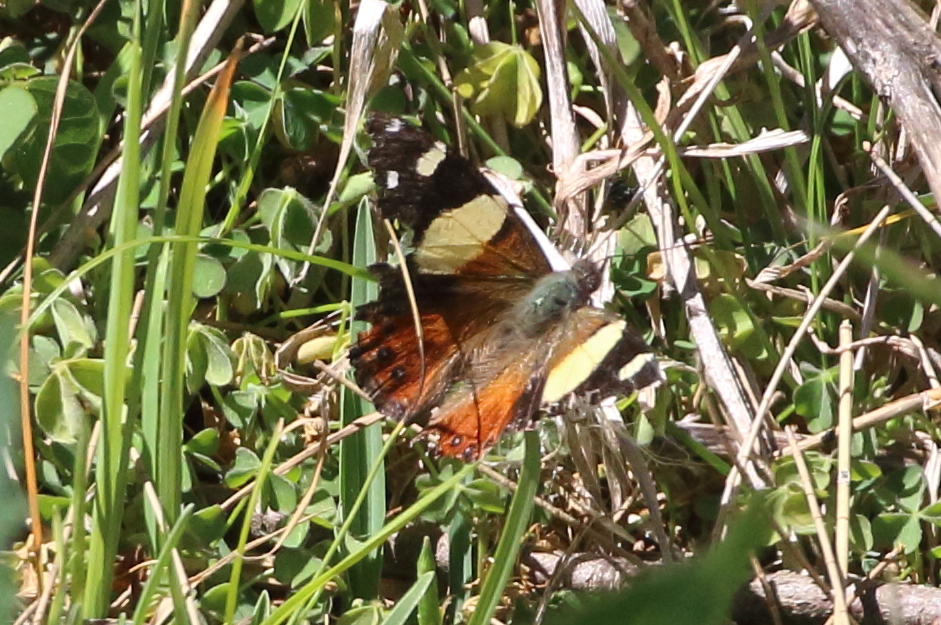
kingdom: Animalia
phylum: Arthropoda
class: Insecta
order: Lepidoptera
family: Nymphalidae
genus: Vanessa
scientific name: Vanessa itea
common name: Yellow admiral
